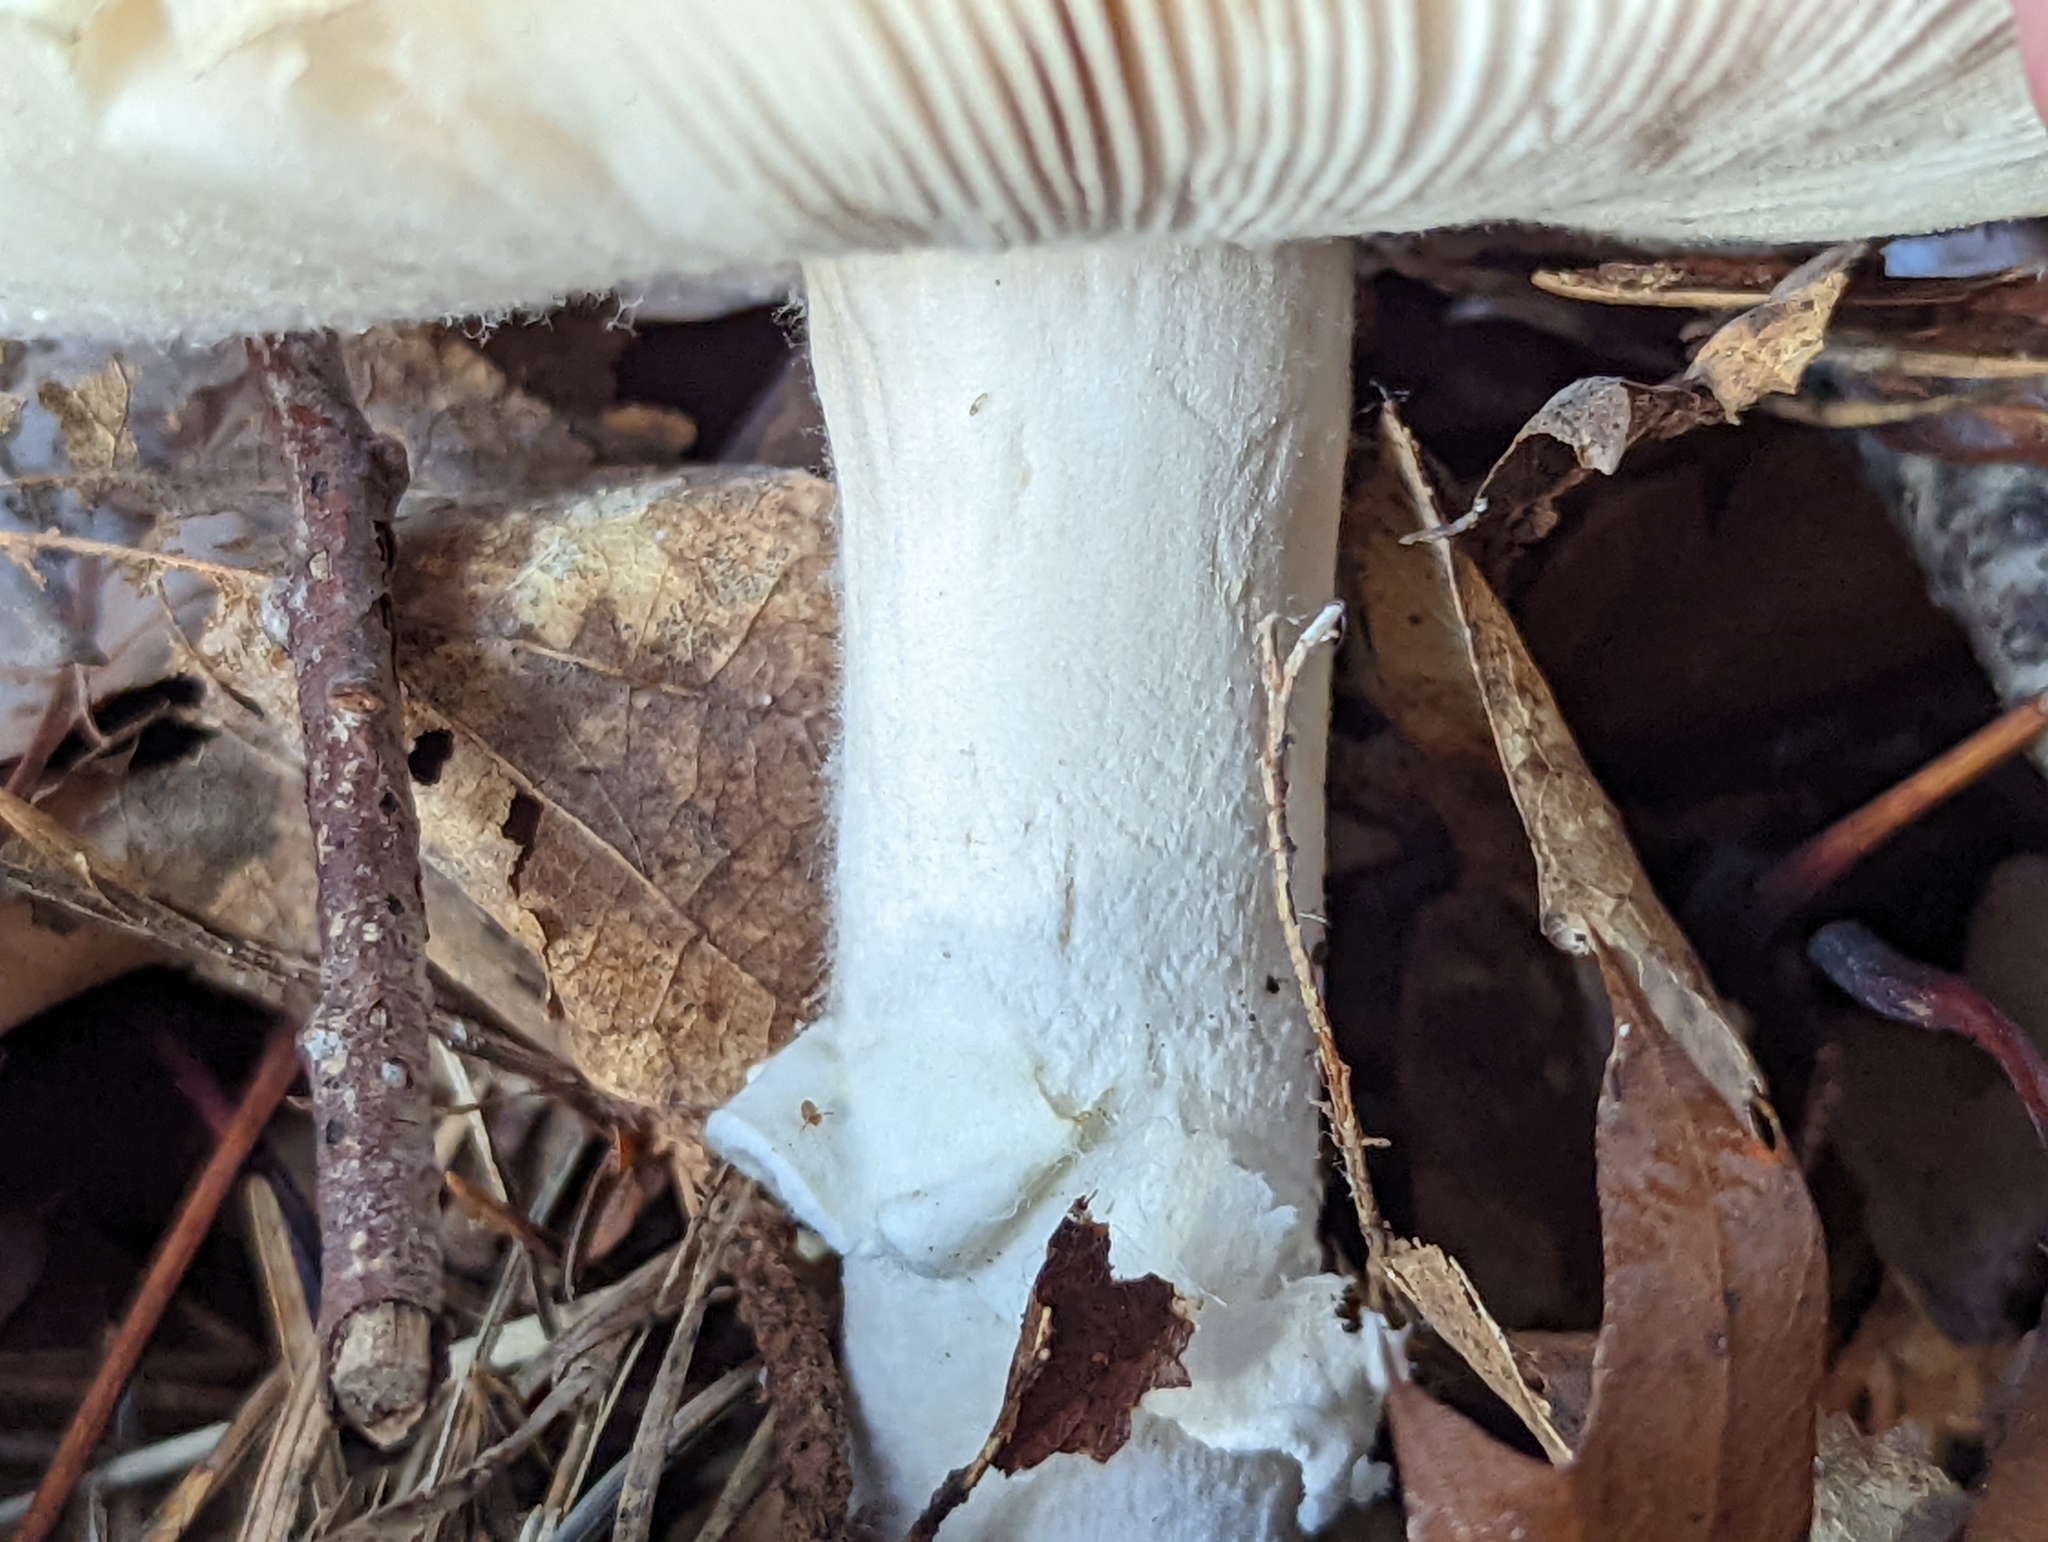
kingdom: Fungi
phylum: Basidiomycota
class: Agaricomycetes
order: Agaricales
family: Amanitaceae
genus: Amanita
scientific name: Amanita gemmata
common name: Jewelled amanita
